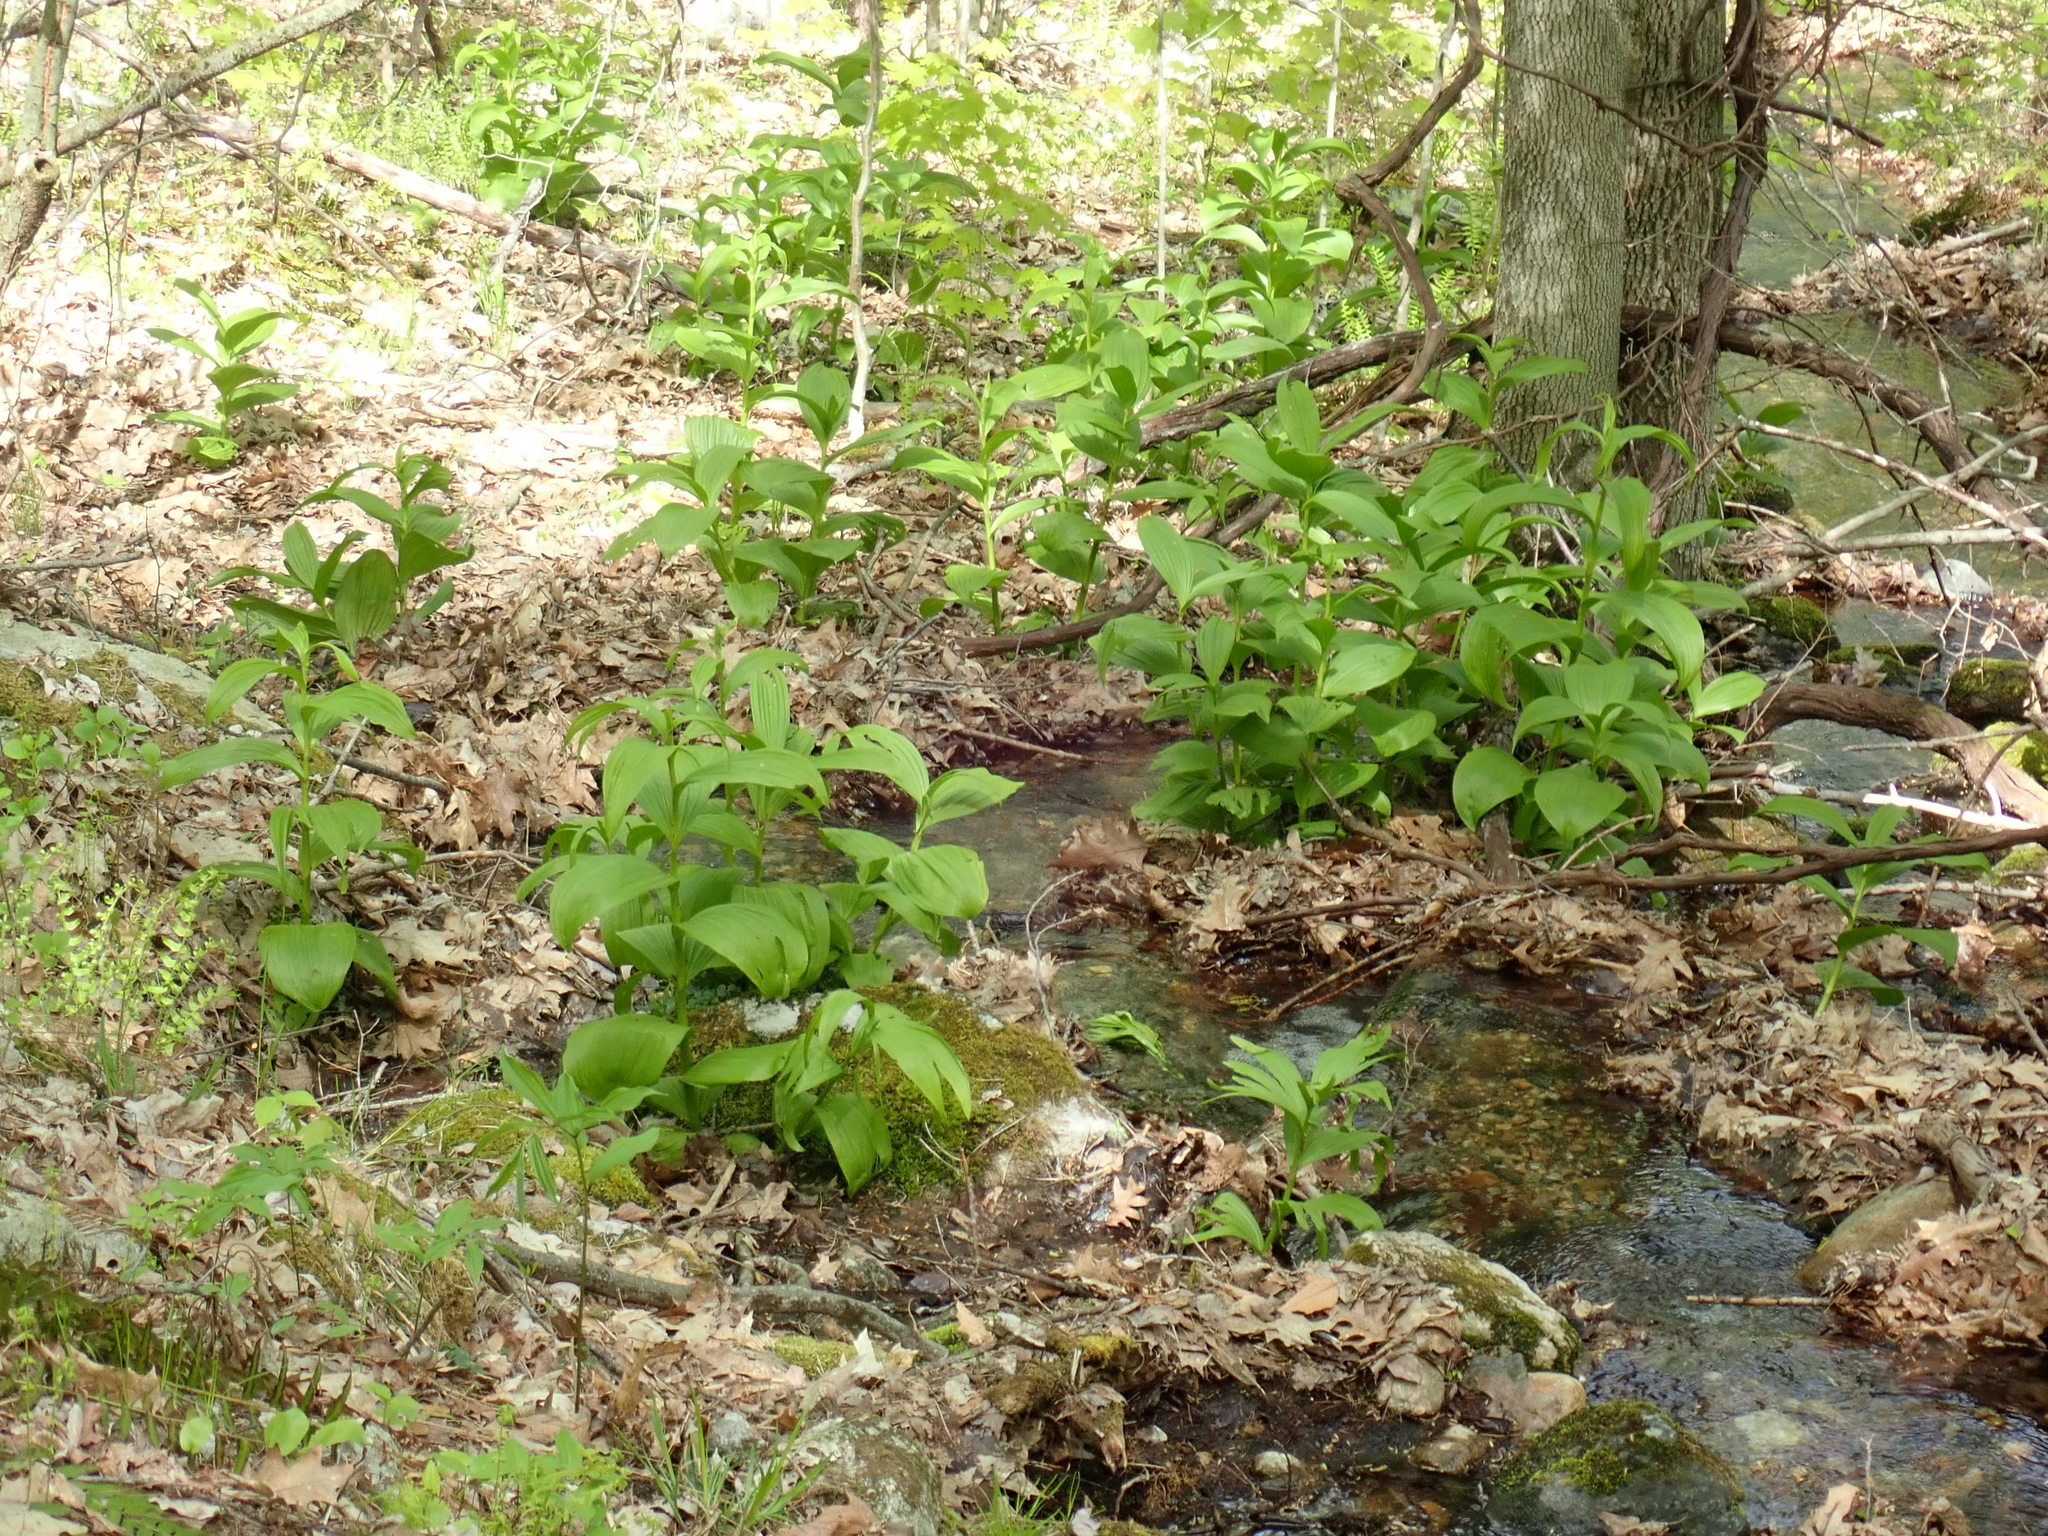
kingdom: Plantae
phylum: Tracheophyta
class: Liliopsida
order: Liliales
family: Melanthiaceae
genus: Veratrum
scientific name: Veratrum viride
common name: American false hellebore
